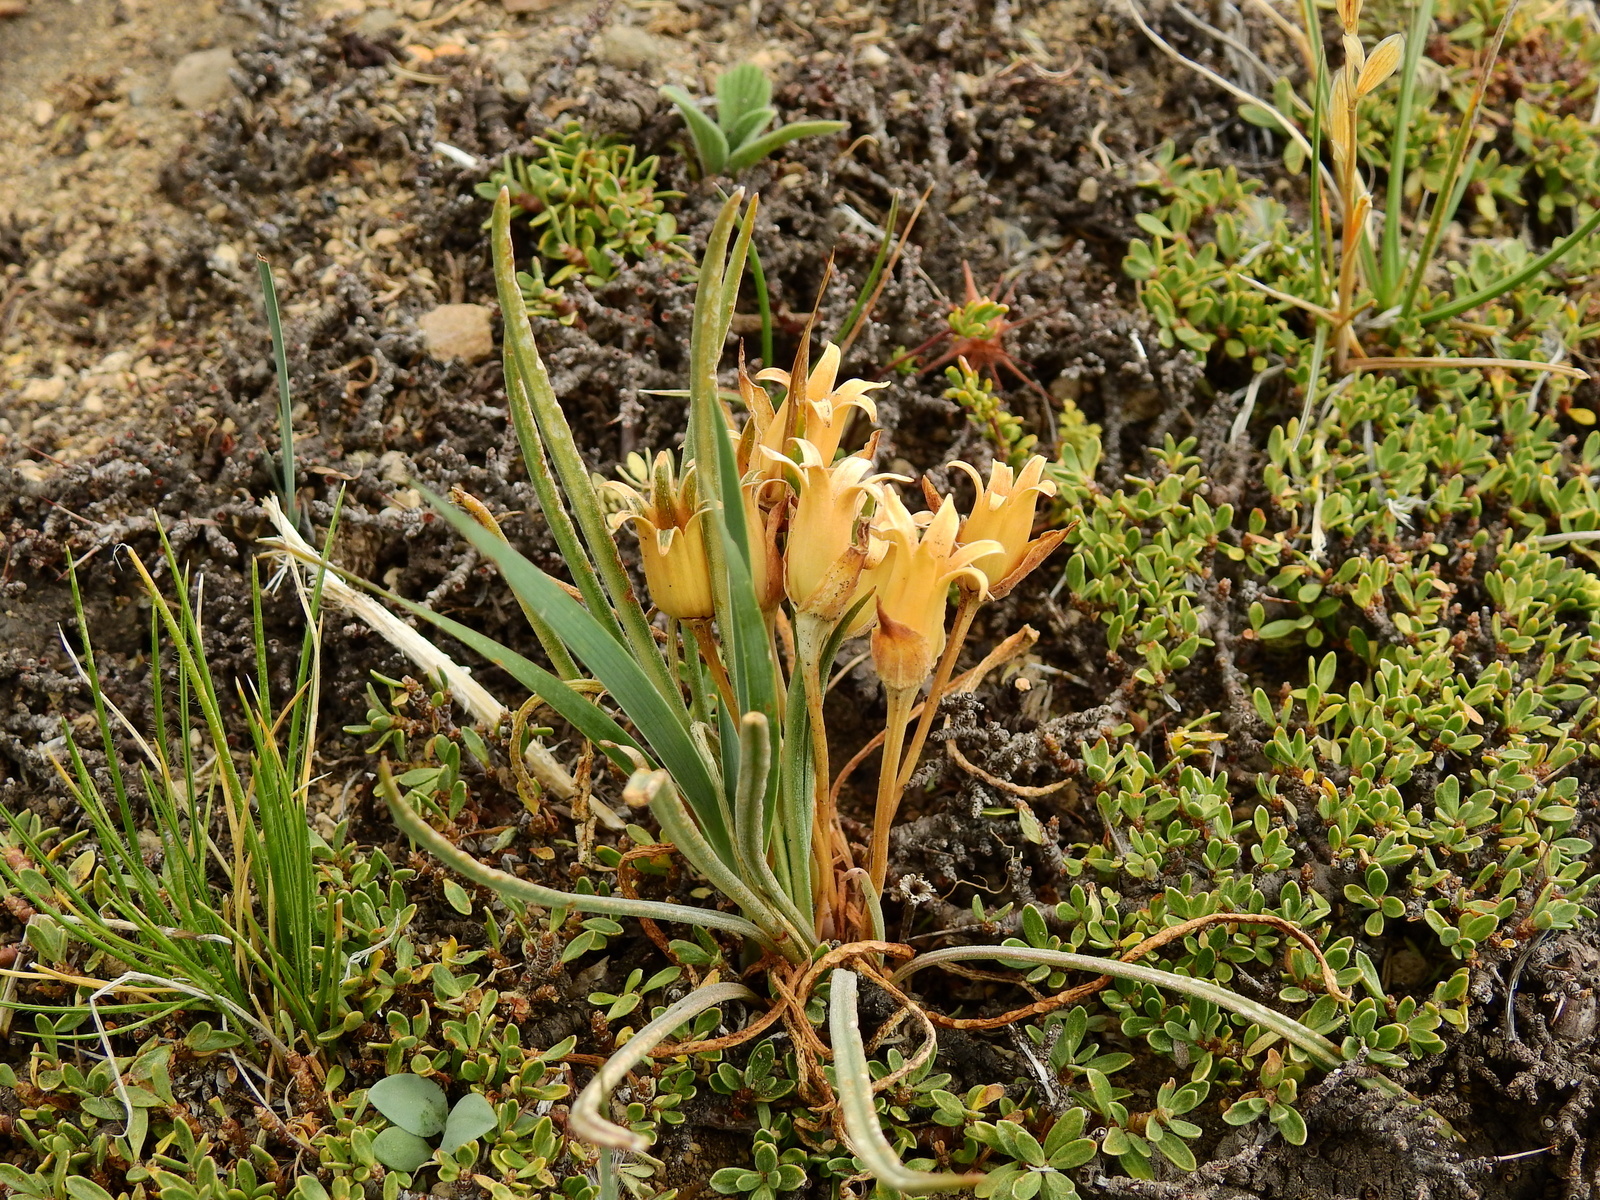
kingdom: Plantae
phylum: Tracheophyta
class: Liliopsida
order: Asparagales
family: Iridaceae
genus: Olsynium
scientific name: Olsynium obscurum
